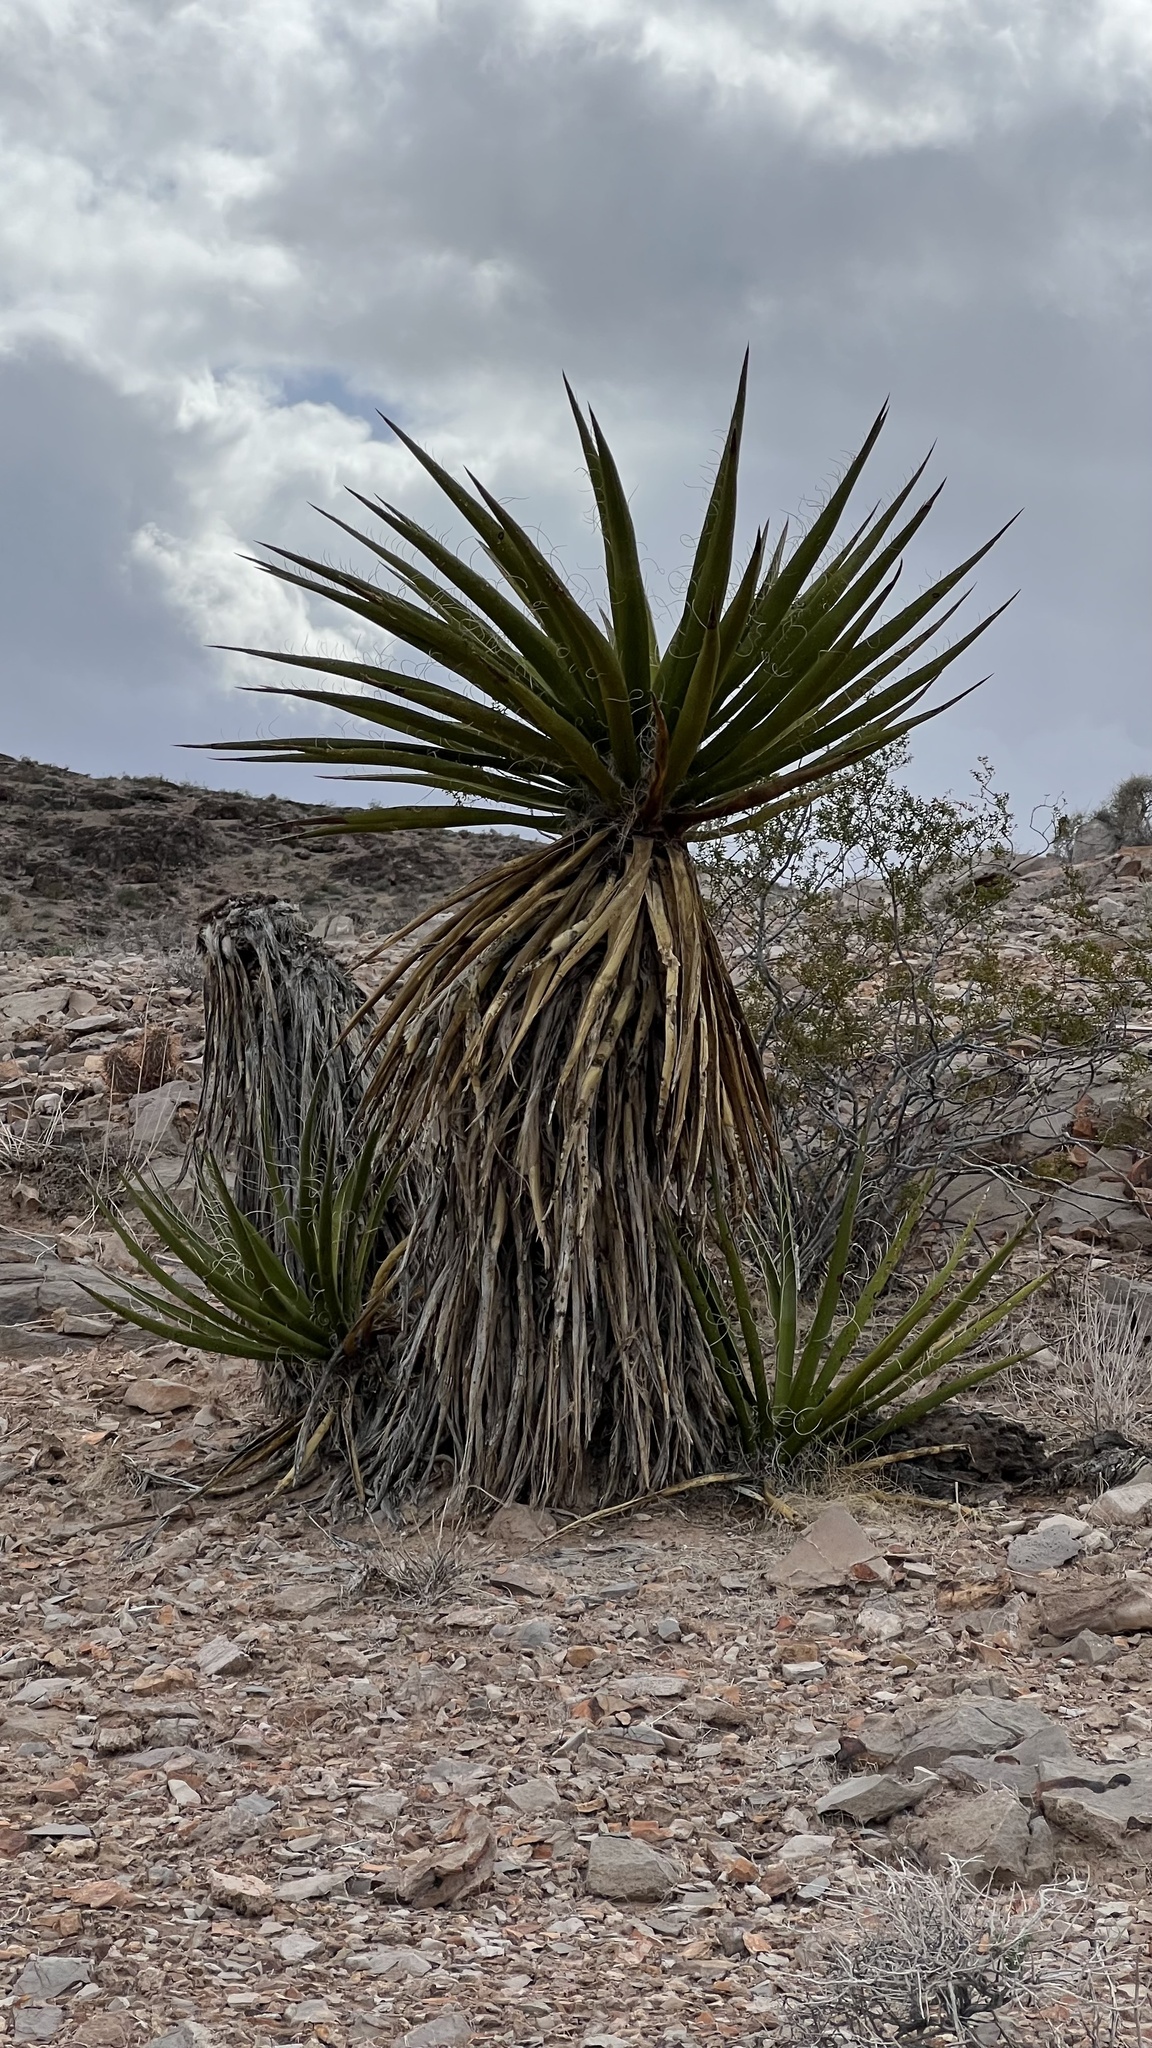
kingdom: Plantae
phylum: Tracheophyta
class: Liliopsida
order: Asparagales
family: Asparagaceae
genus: Yucca
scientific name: Yucca schidigera
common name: Mojave yucca
